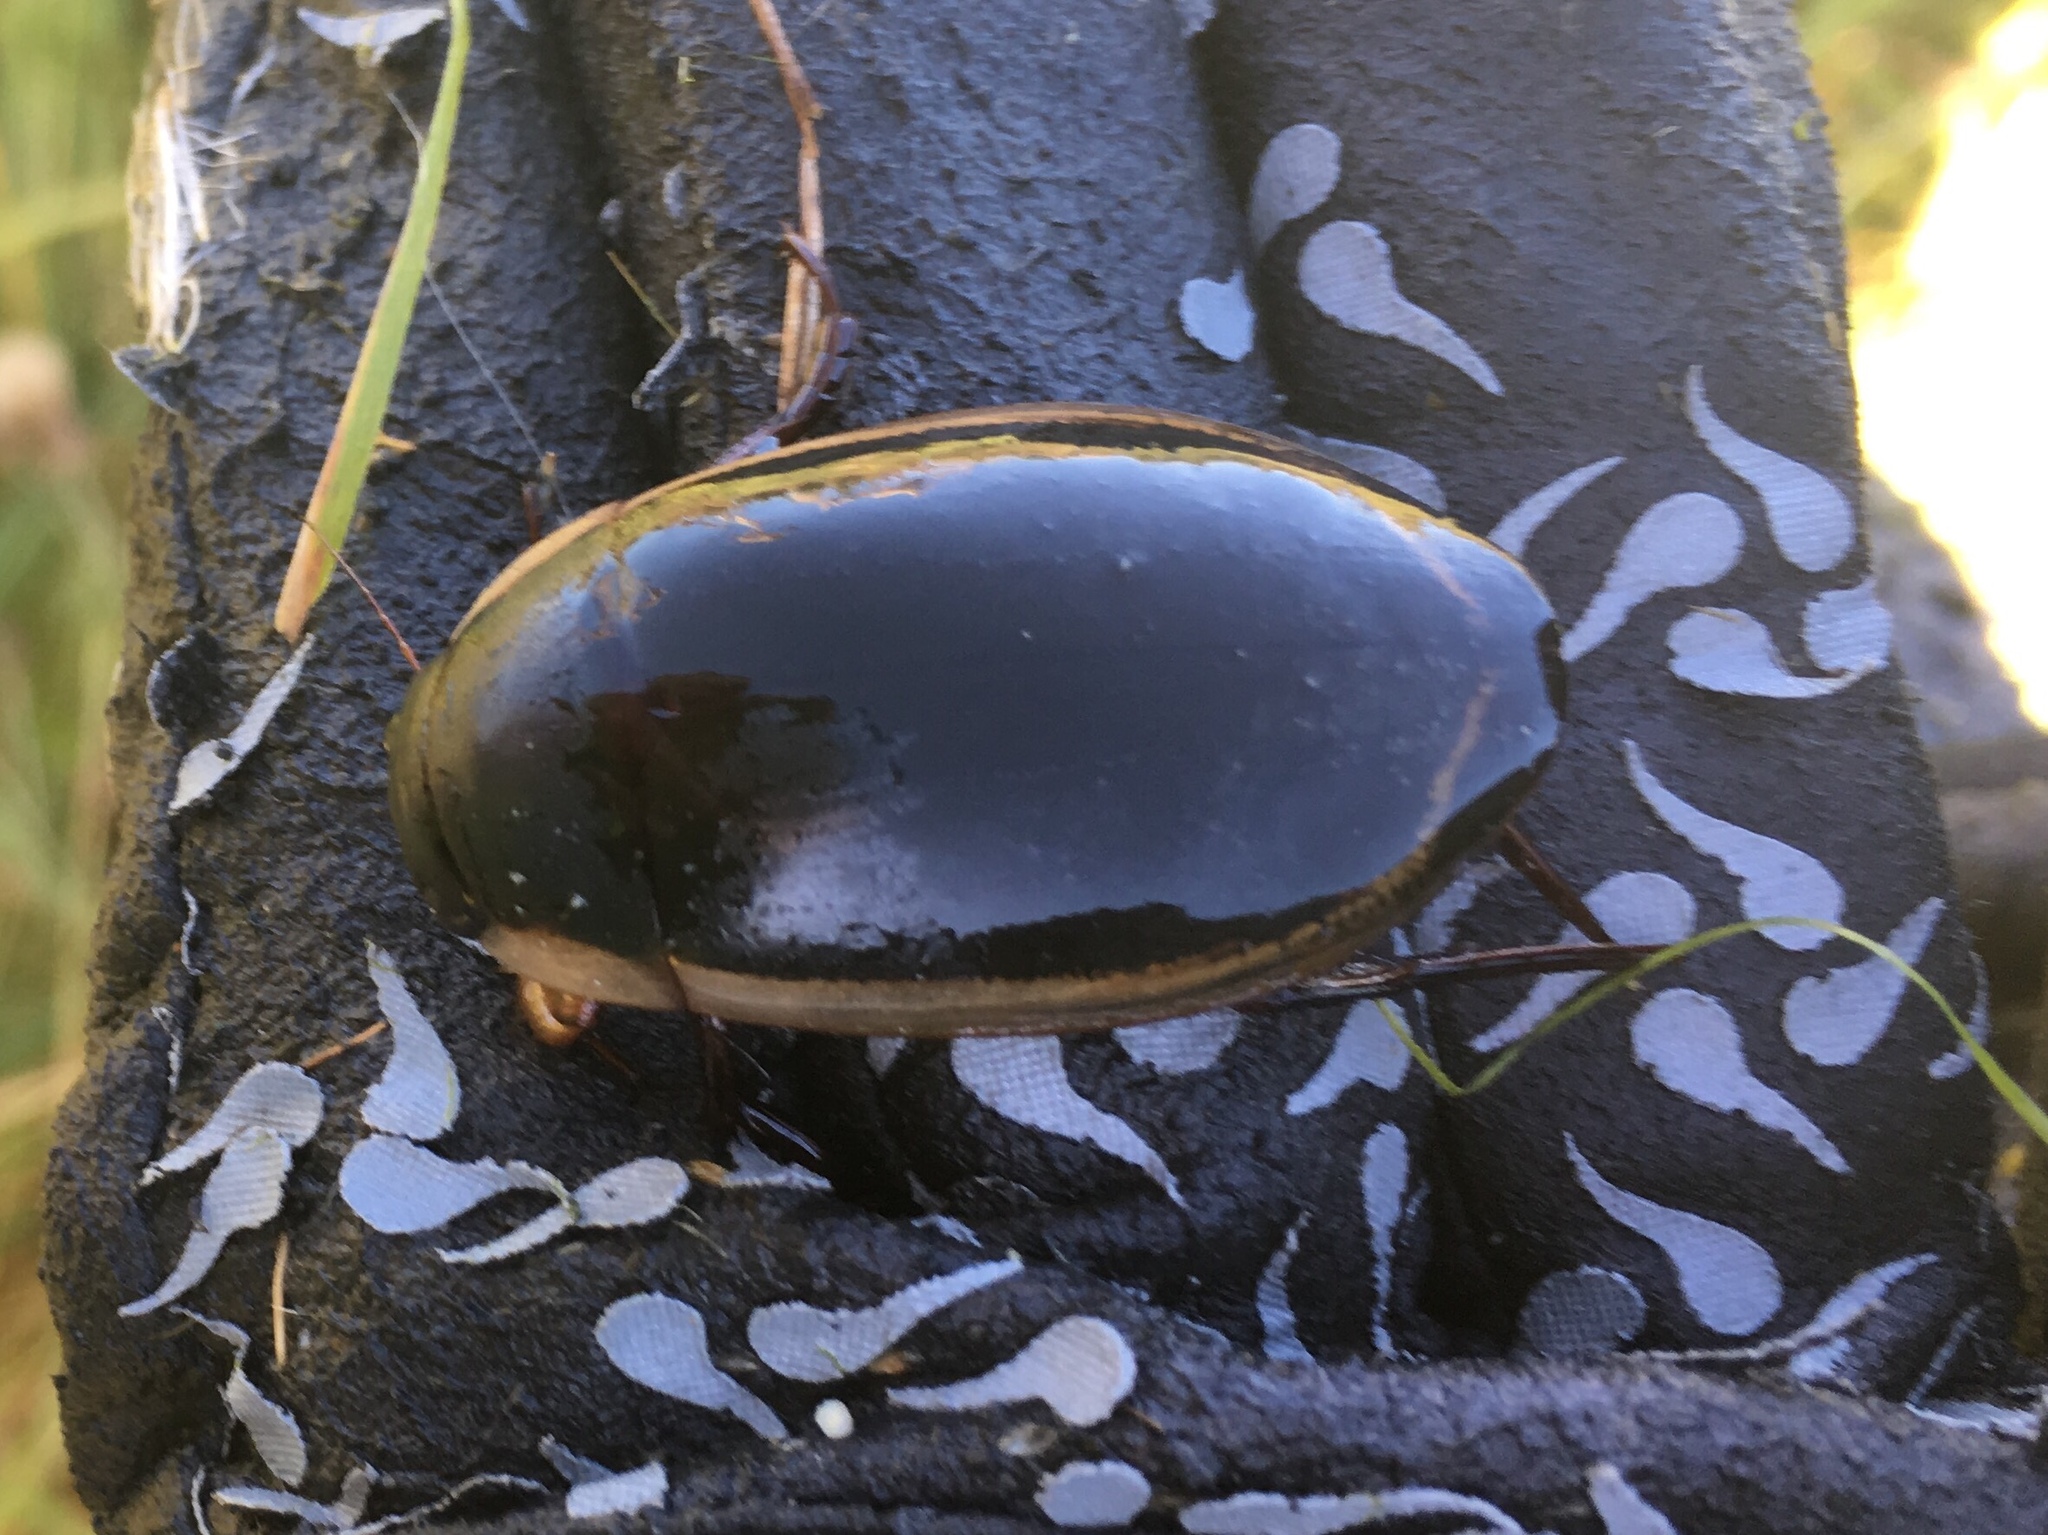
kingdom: Animalia
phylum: Arthropoda
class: Insecta
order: Coleoptera
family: Dytiscidae
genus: Dytiscus
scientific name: Dytiscus verticalis
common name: Vertical diving beetle
